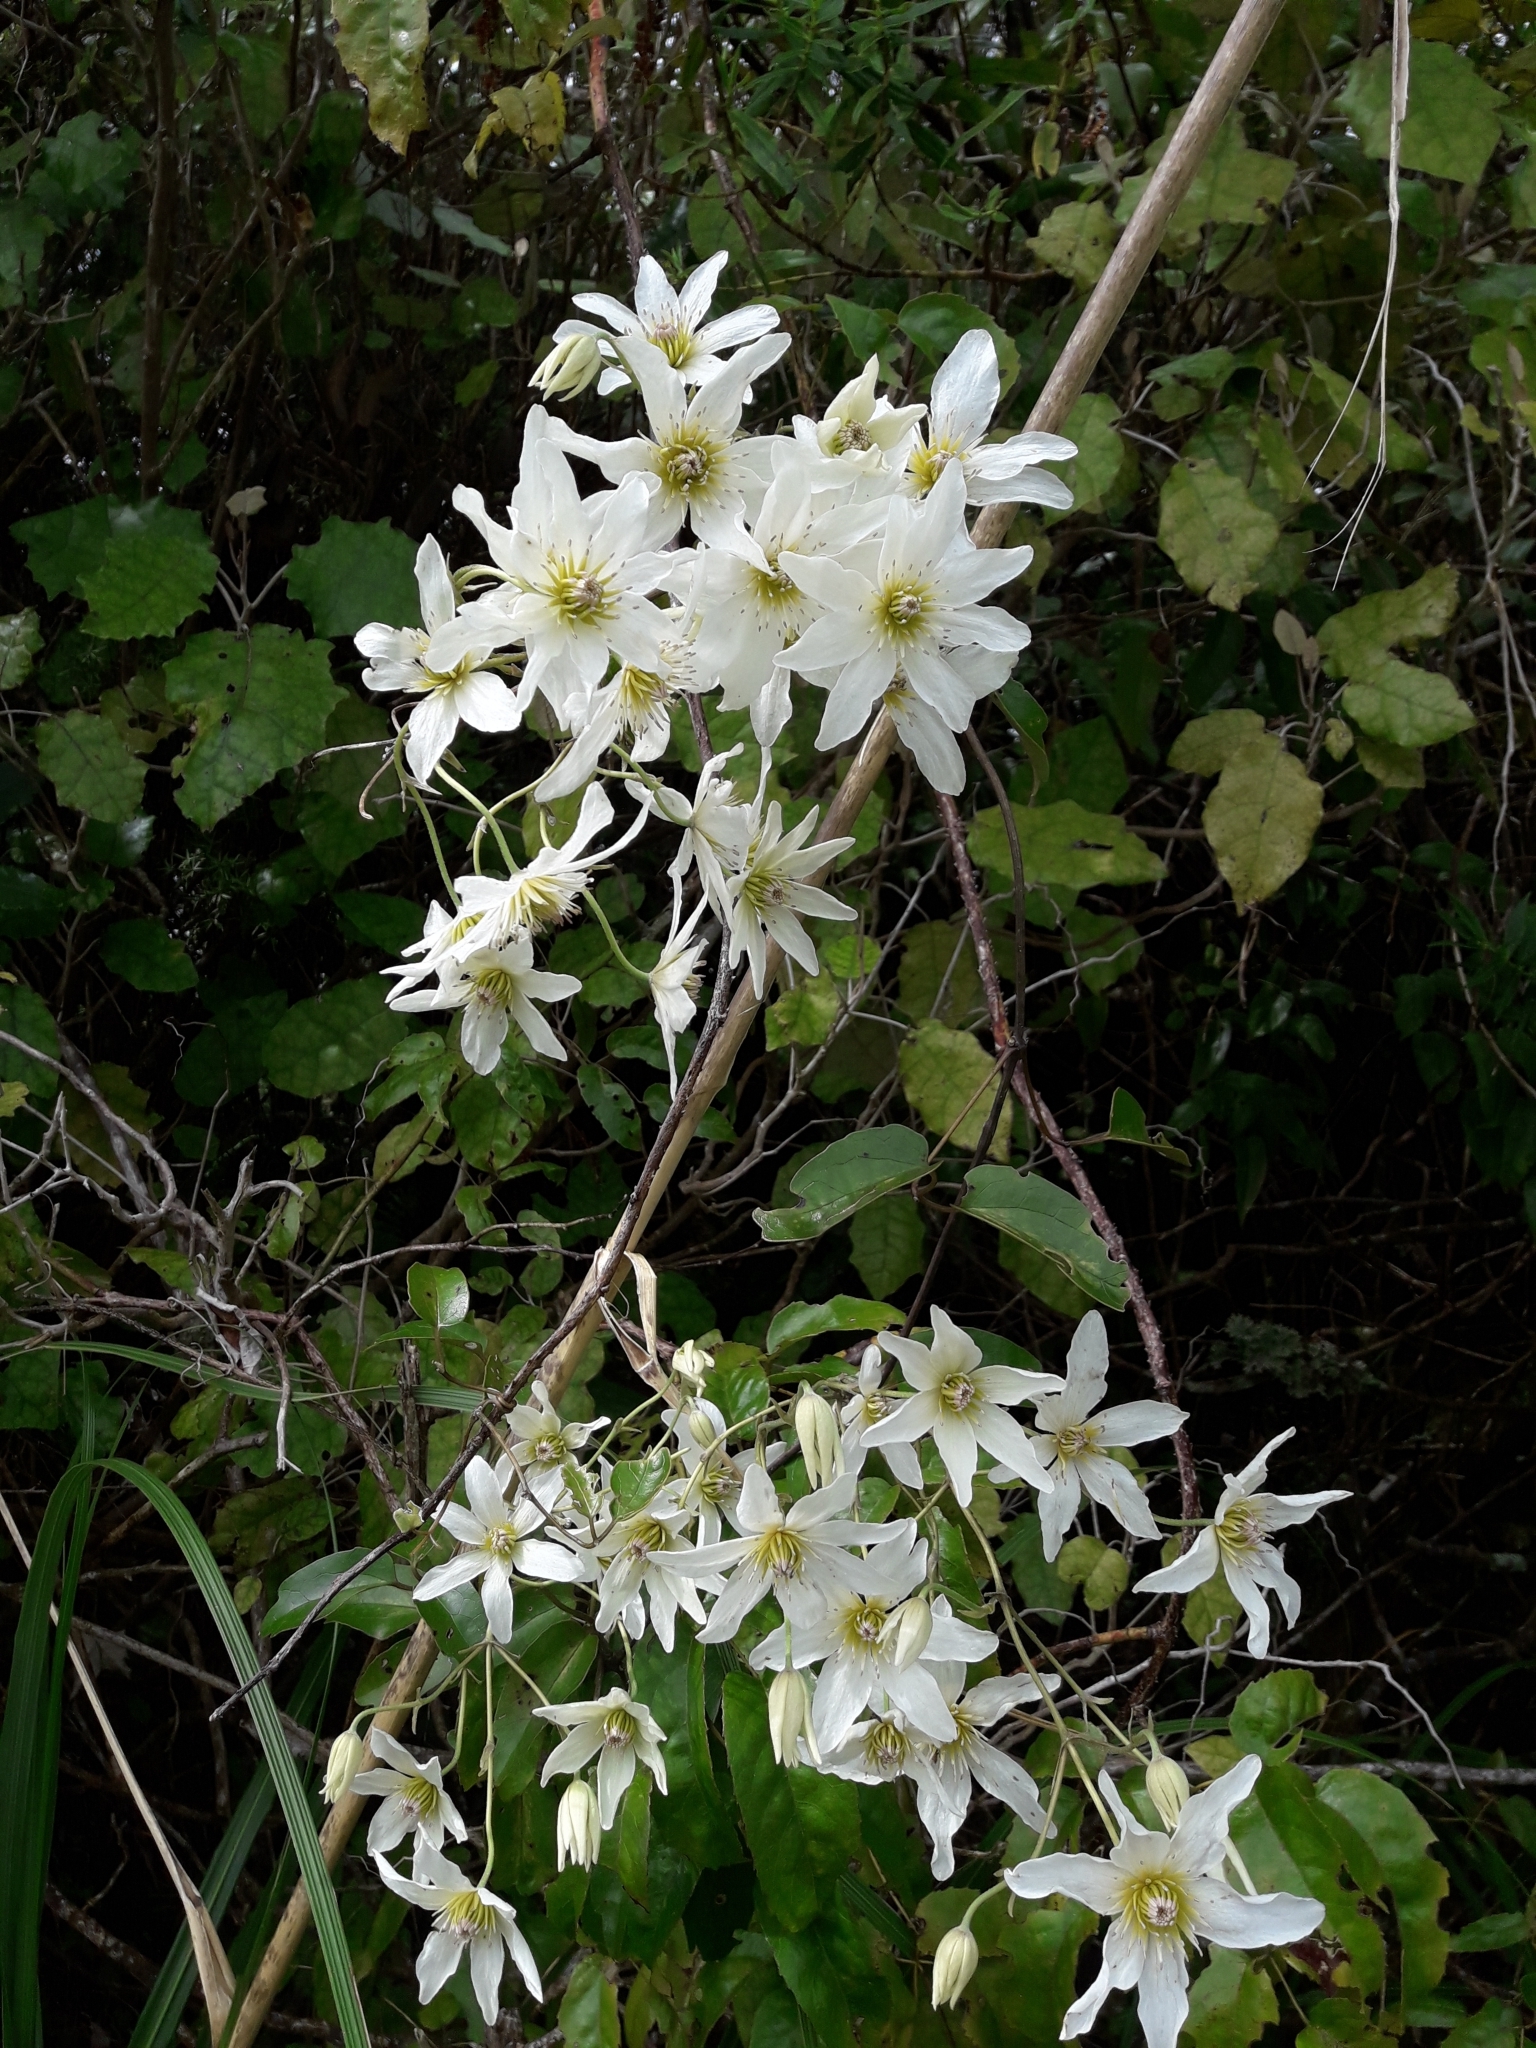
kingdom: Plantae
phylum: Tracheophyta
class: Magnoliopsida
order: Ranunculales
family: Ranunculaceae
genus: Clematis
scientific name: Clematis paniculata
